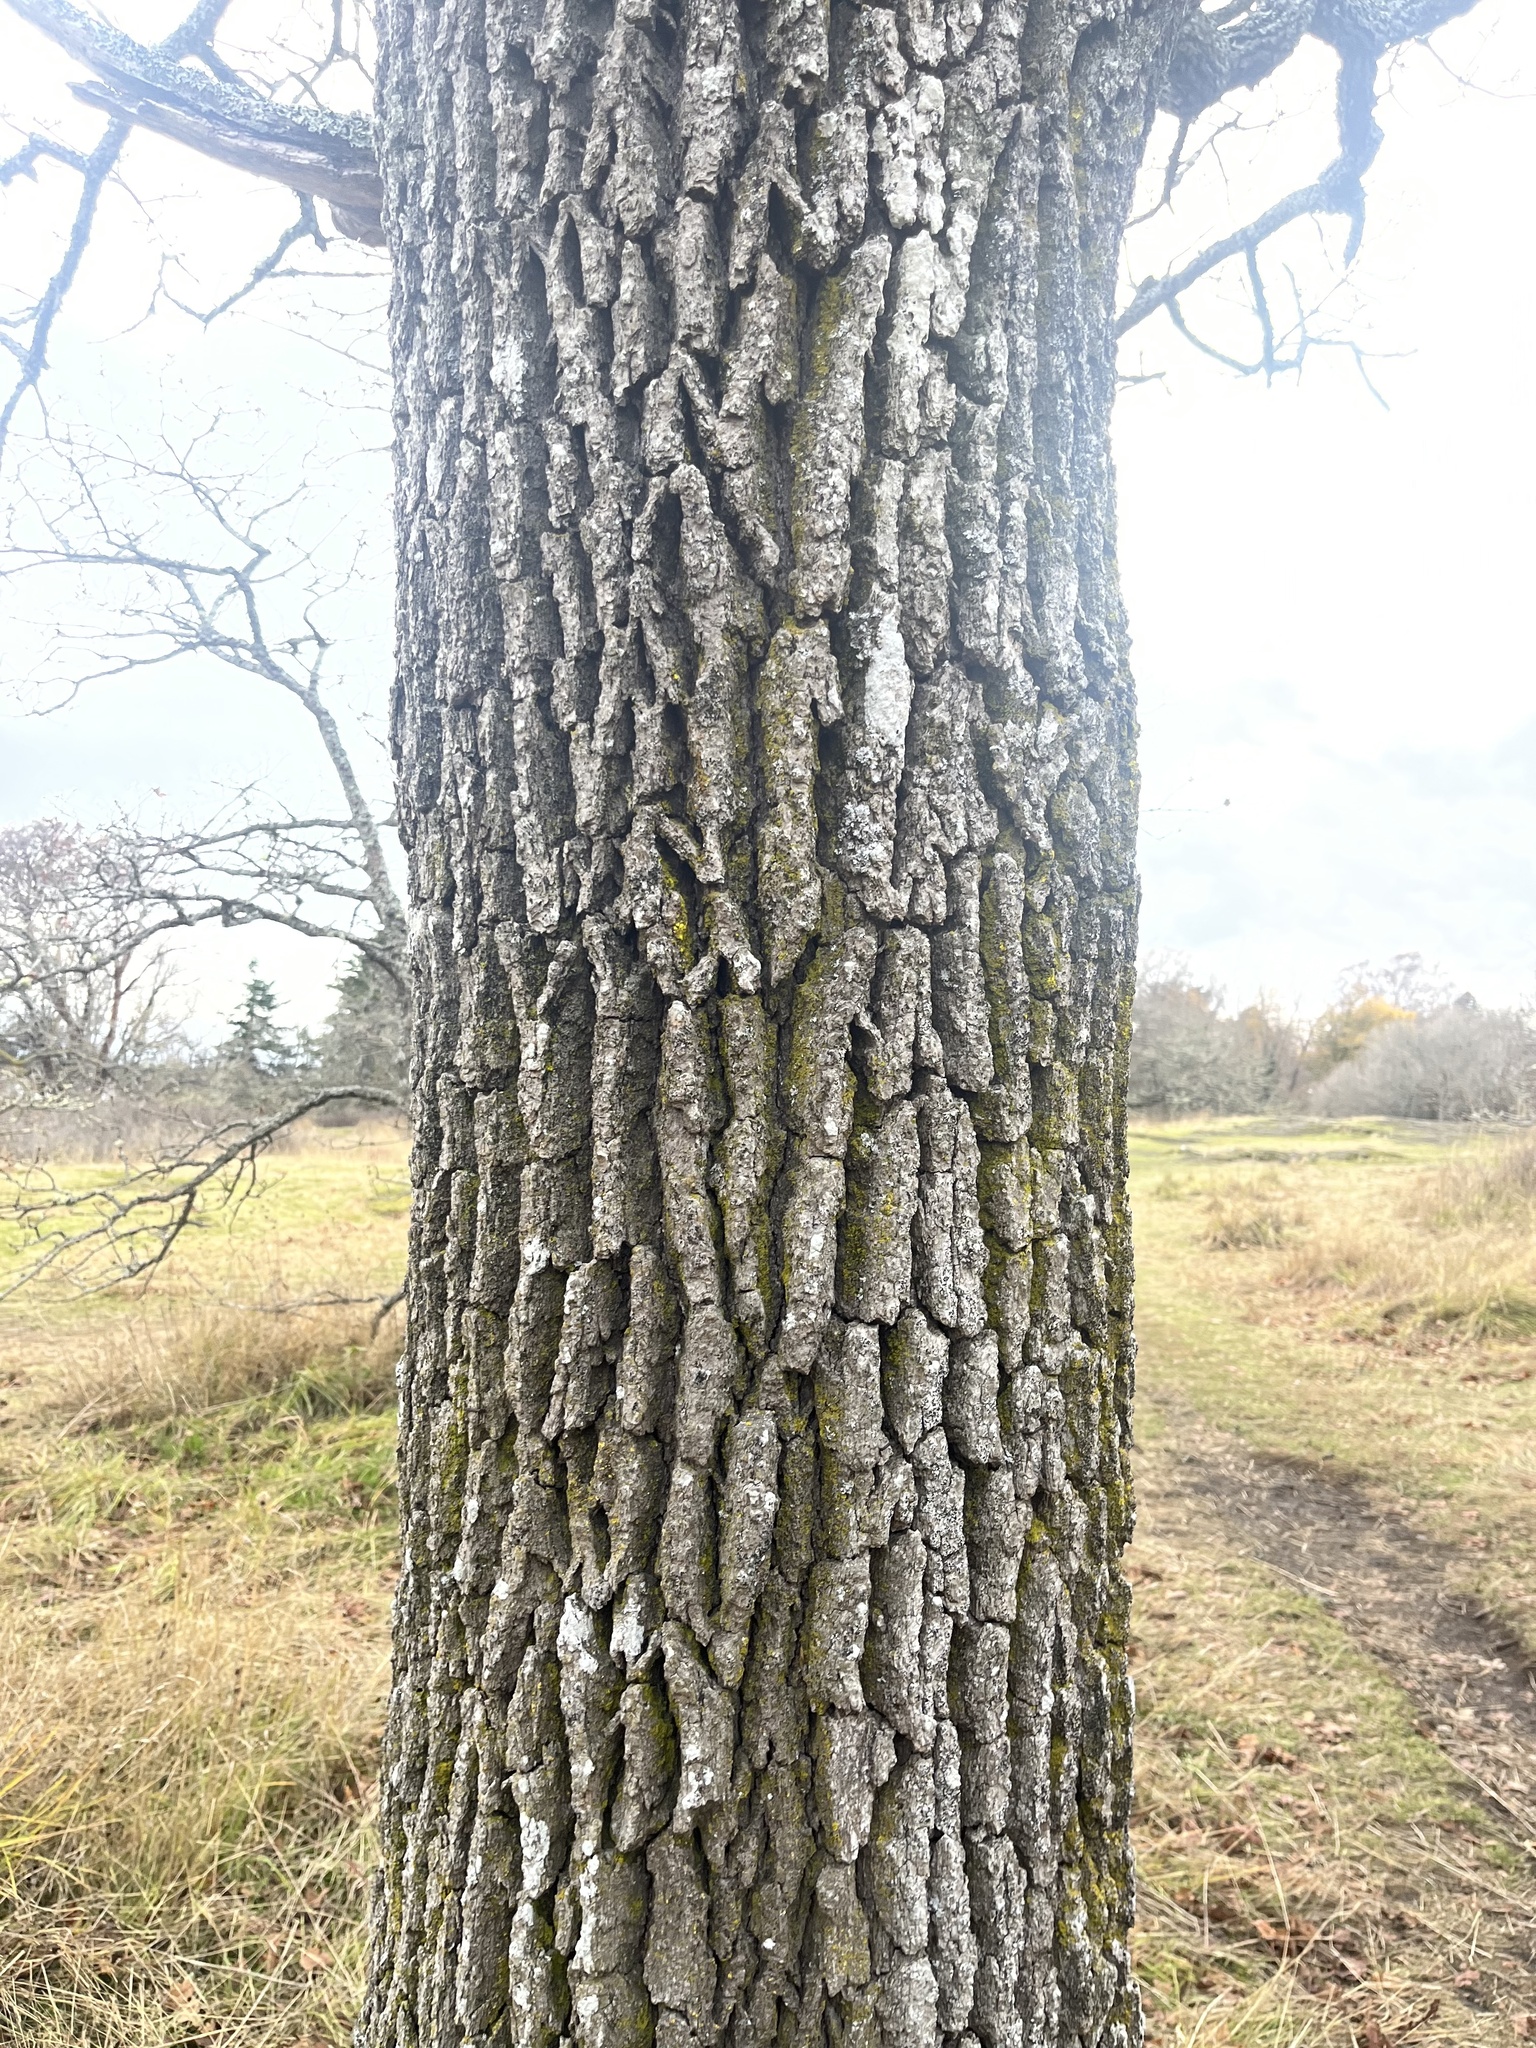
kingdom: Plantae
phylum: Tracheophyta
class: Magnoliopsida
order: Fagales
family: Fagaceae
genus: Quercus
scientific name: Quercus garryana
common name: Garry oak
